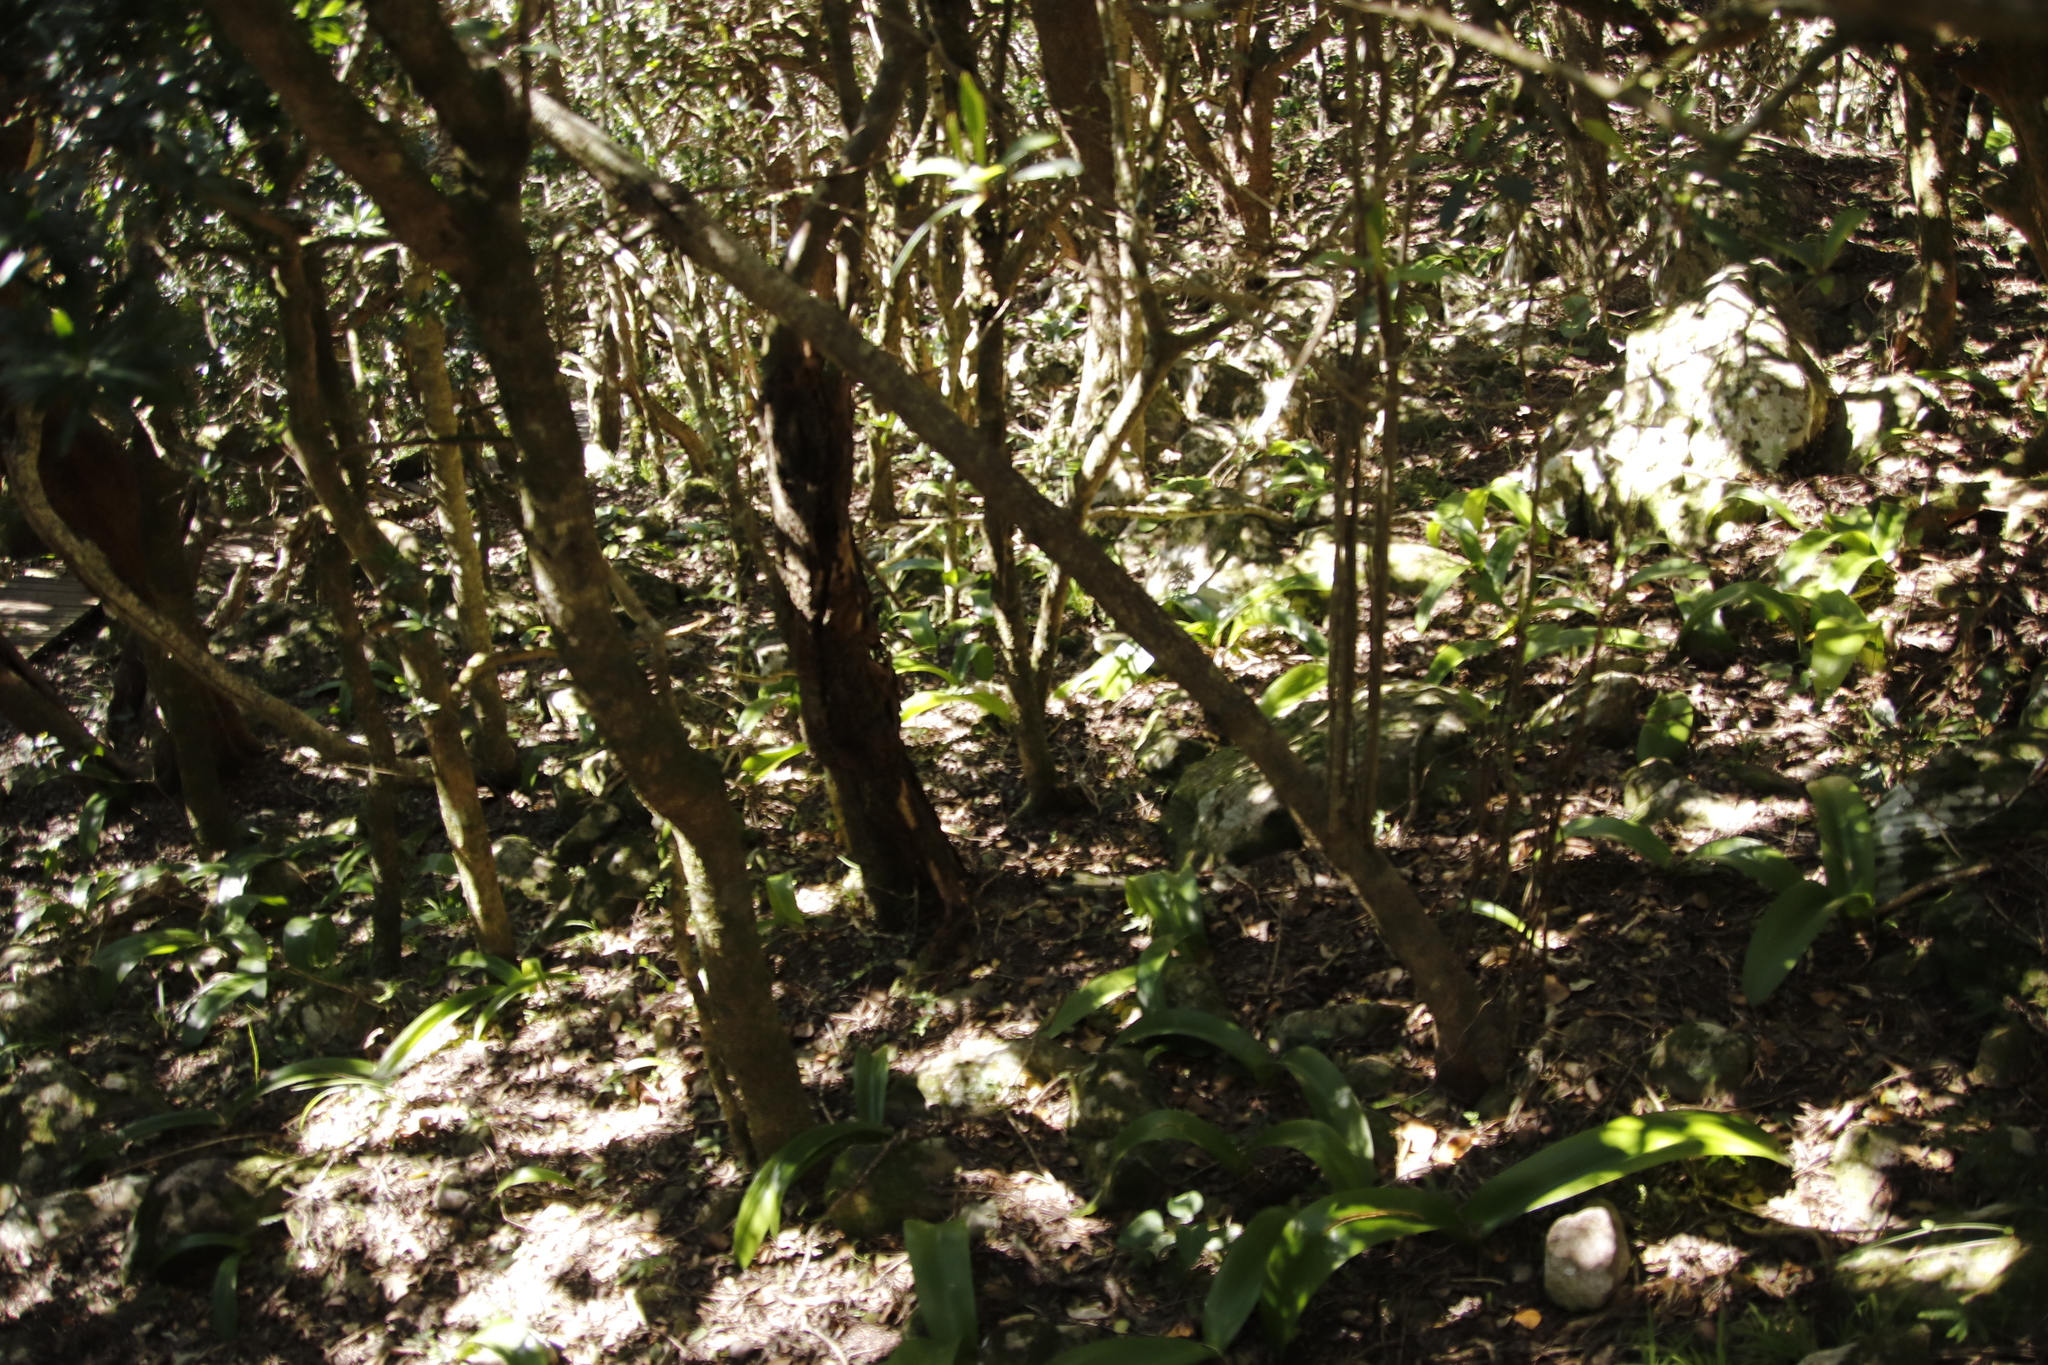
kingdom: Plantae
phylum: Tracheophyta
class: Liliopsida
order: Asparagales
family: Amaryllidaceae
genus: Haemanthus
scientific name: Haemanthus coccineus
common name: Cape-tulip
